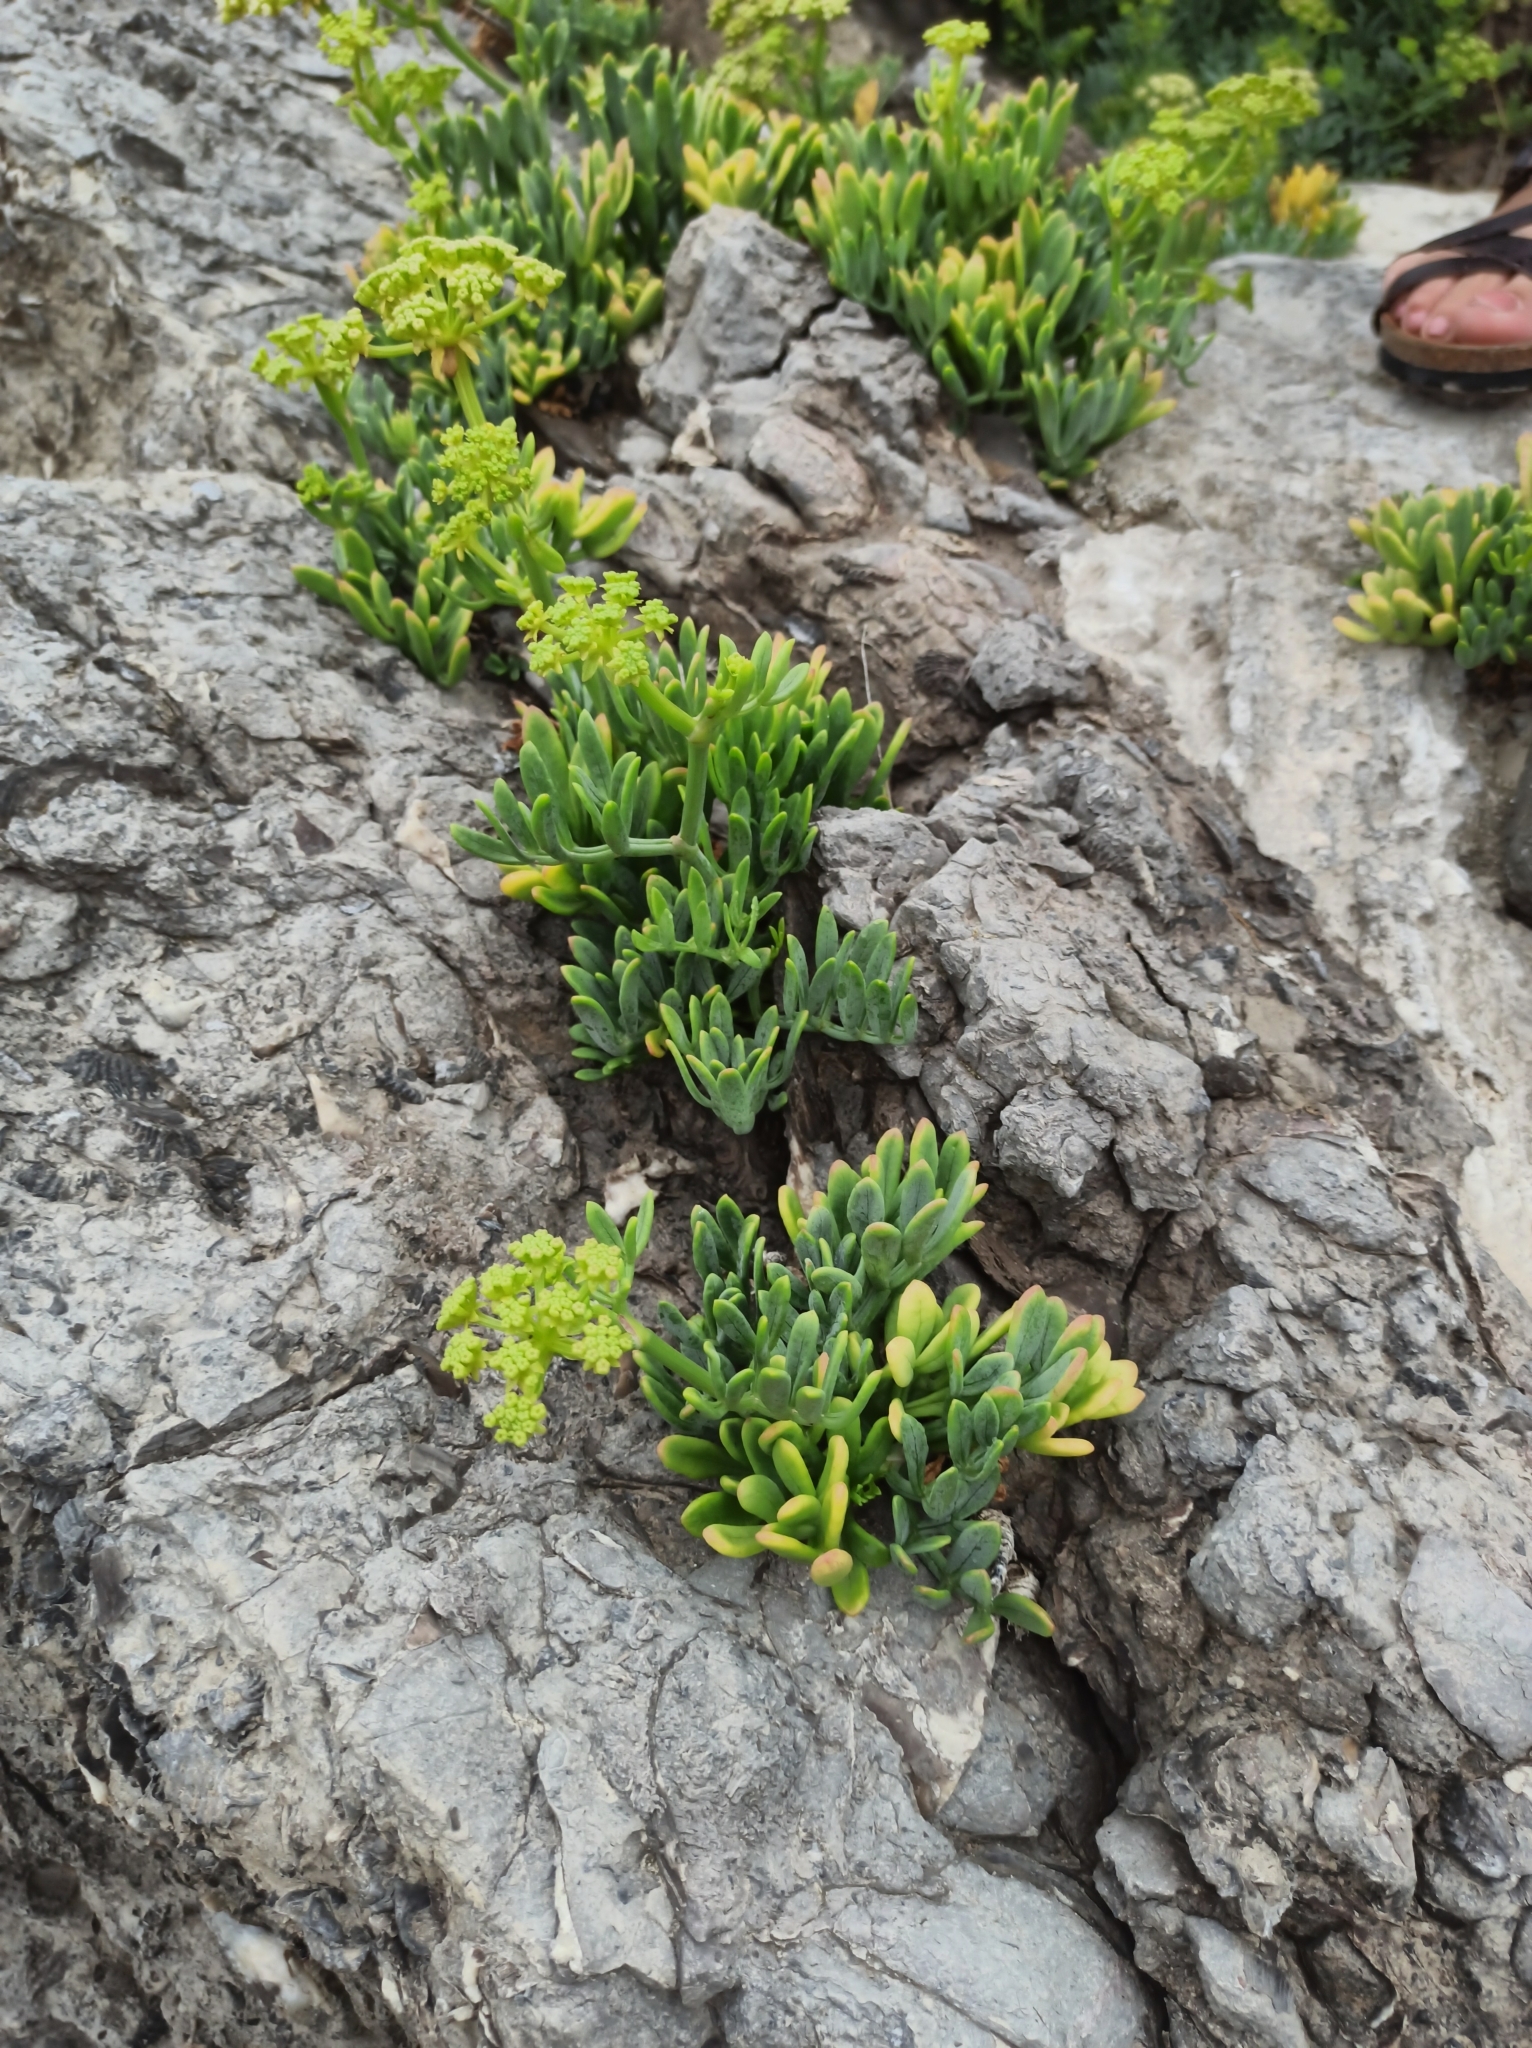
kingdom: Plantae
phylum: Tracheophyta
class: Magnoliopsida
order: Apiales
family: Apiaceae
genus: Crithmum
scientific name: Crithmum maritimum
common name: Rock samphire
